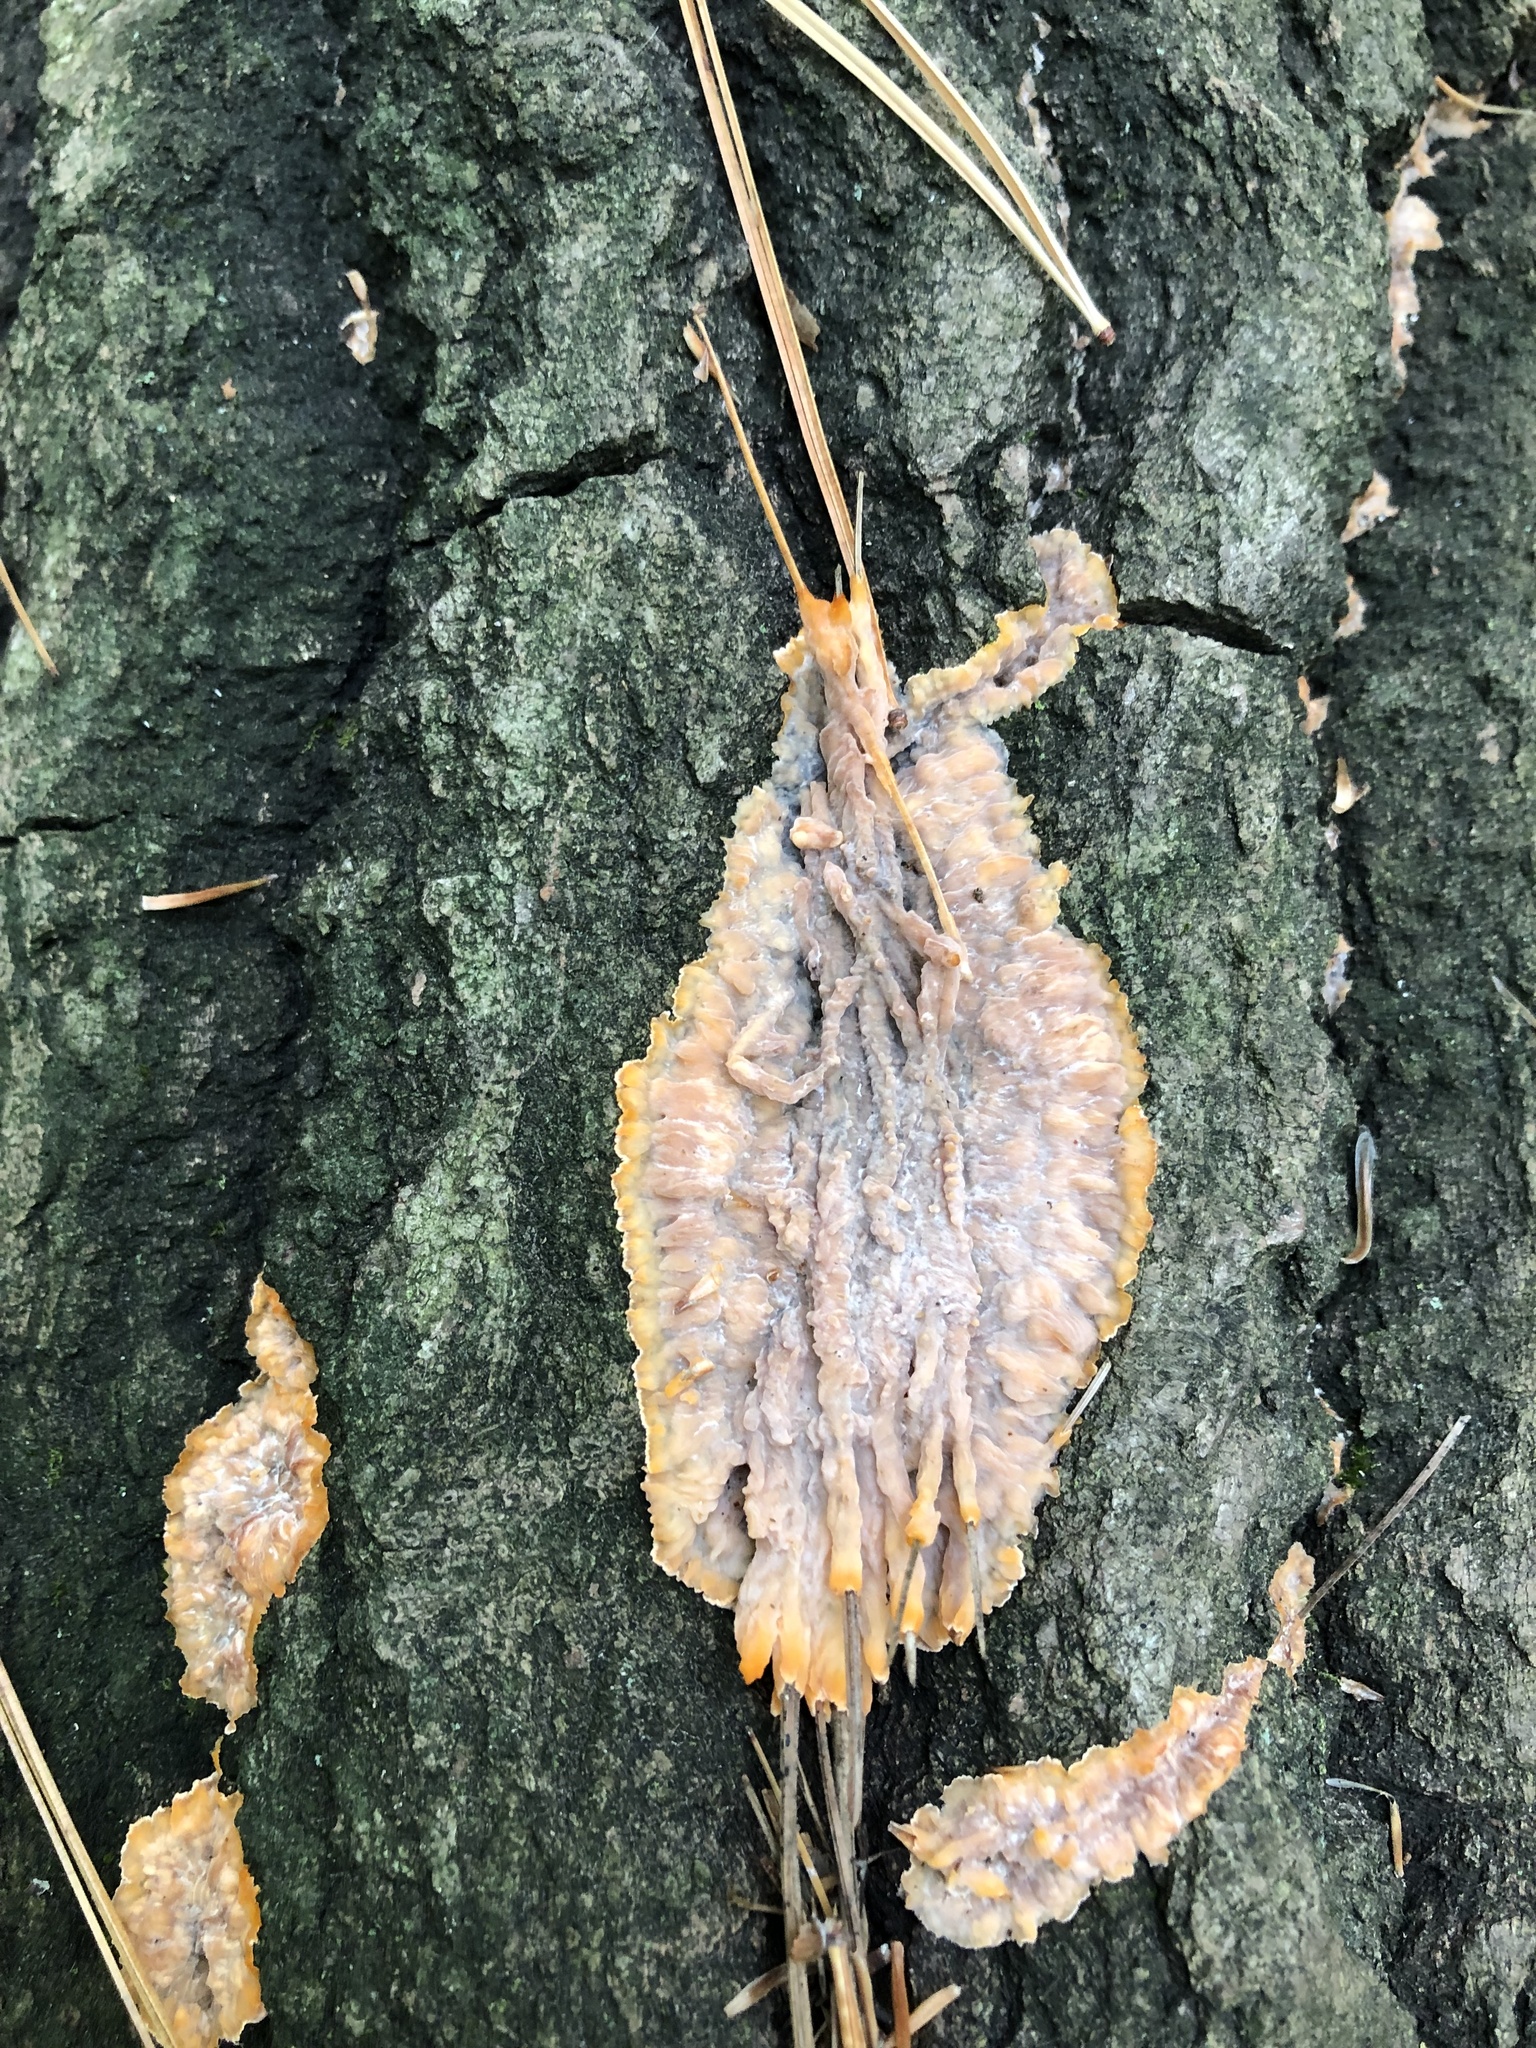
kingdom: Fungi
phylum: Basidiomycota
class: Agaricomycetes
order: Polyporales
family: Meruliaceae
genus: Phlebia
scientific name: Phlebia radiata
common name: Wrinkled crust
